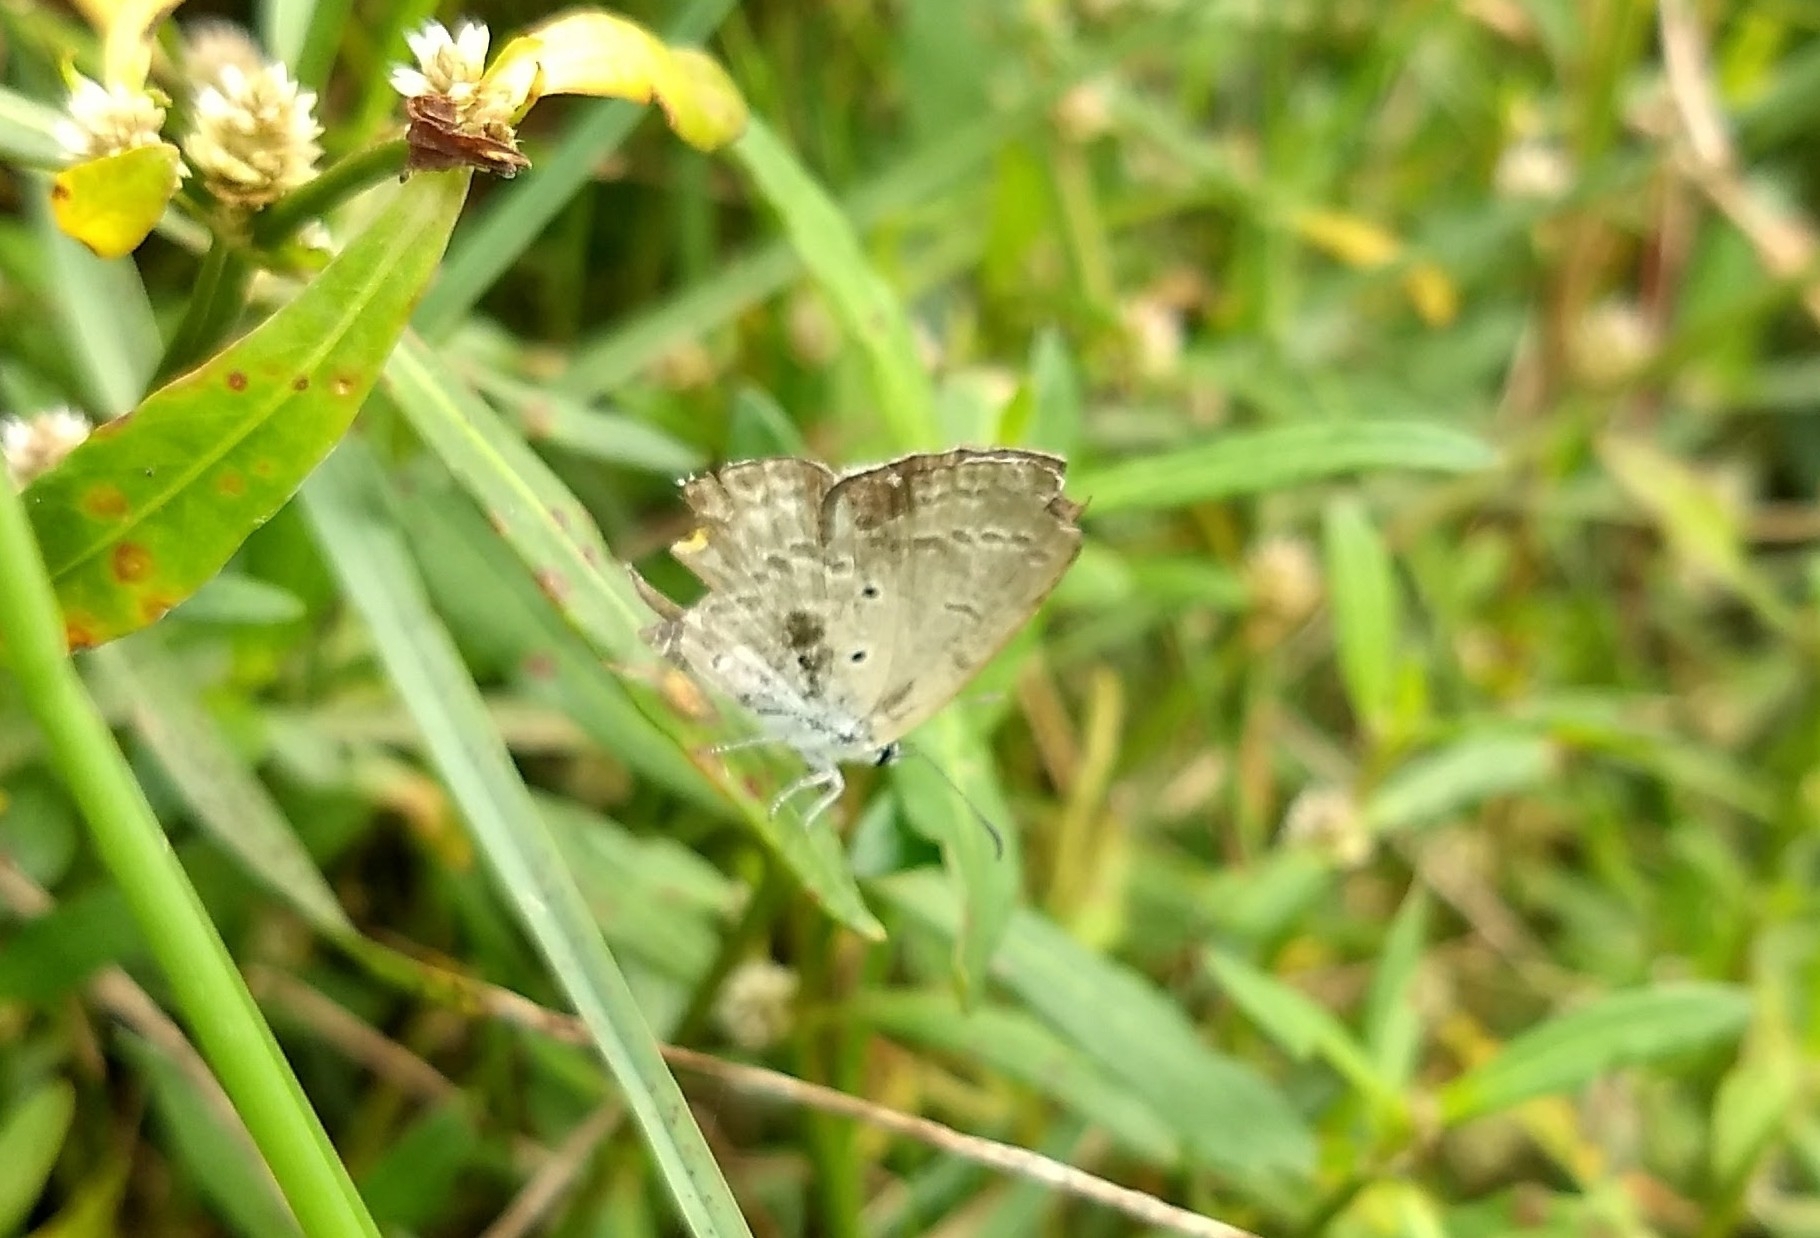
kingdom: Animalia
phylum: Arthropoda
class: Insecta
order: Lepidoptera
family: Lycaenidae
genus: Euchrysops
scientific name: Euchrysops cnejus
